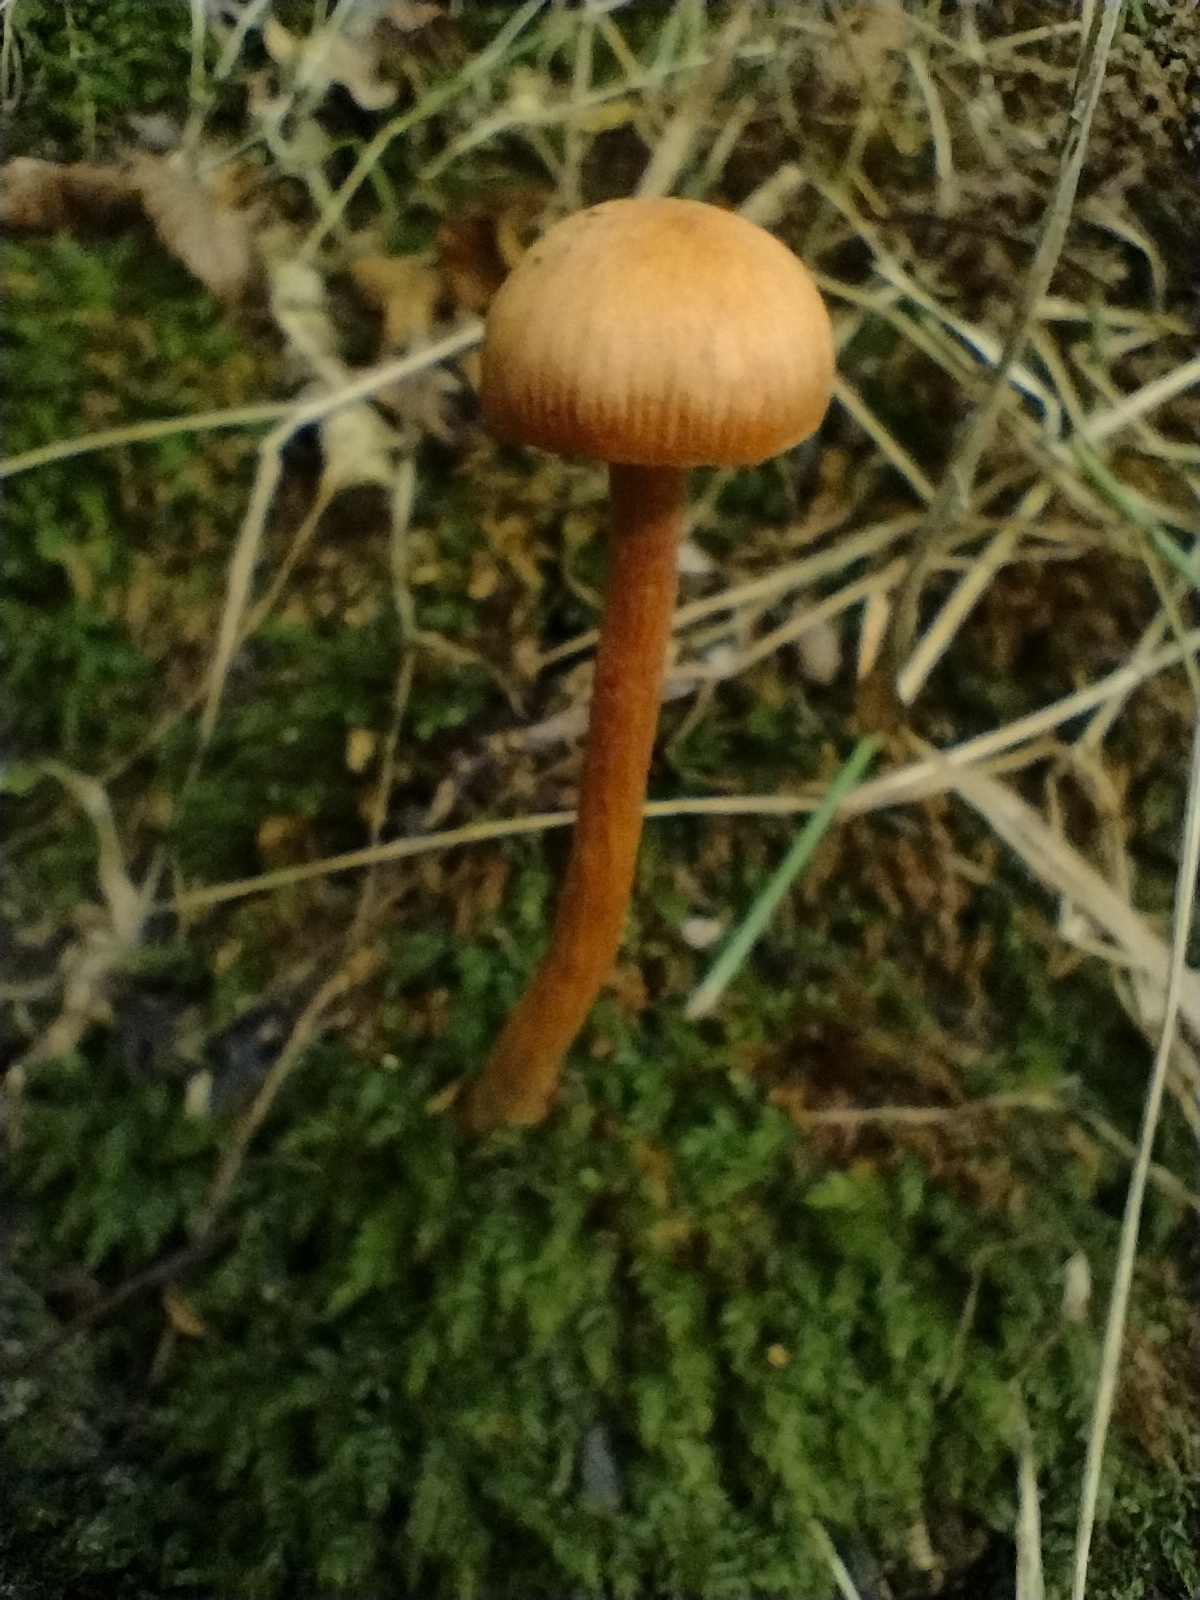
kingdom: Fungi
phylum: Basidiomycota
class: Agaricomycetes
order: Agaricales
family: Hydnangiaceae
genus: Laccaria
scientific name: Laccaria laccata
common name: Deceiver
